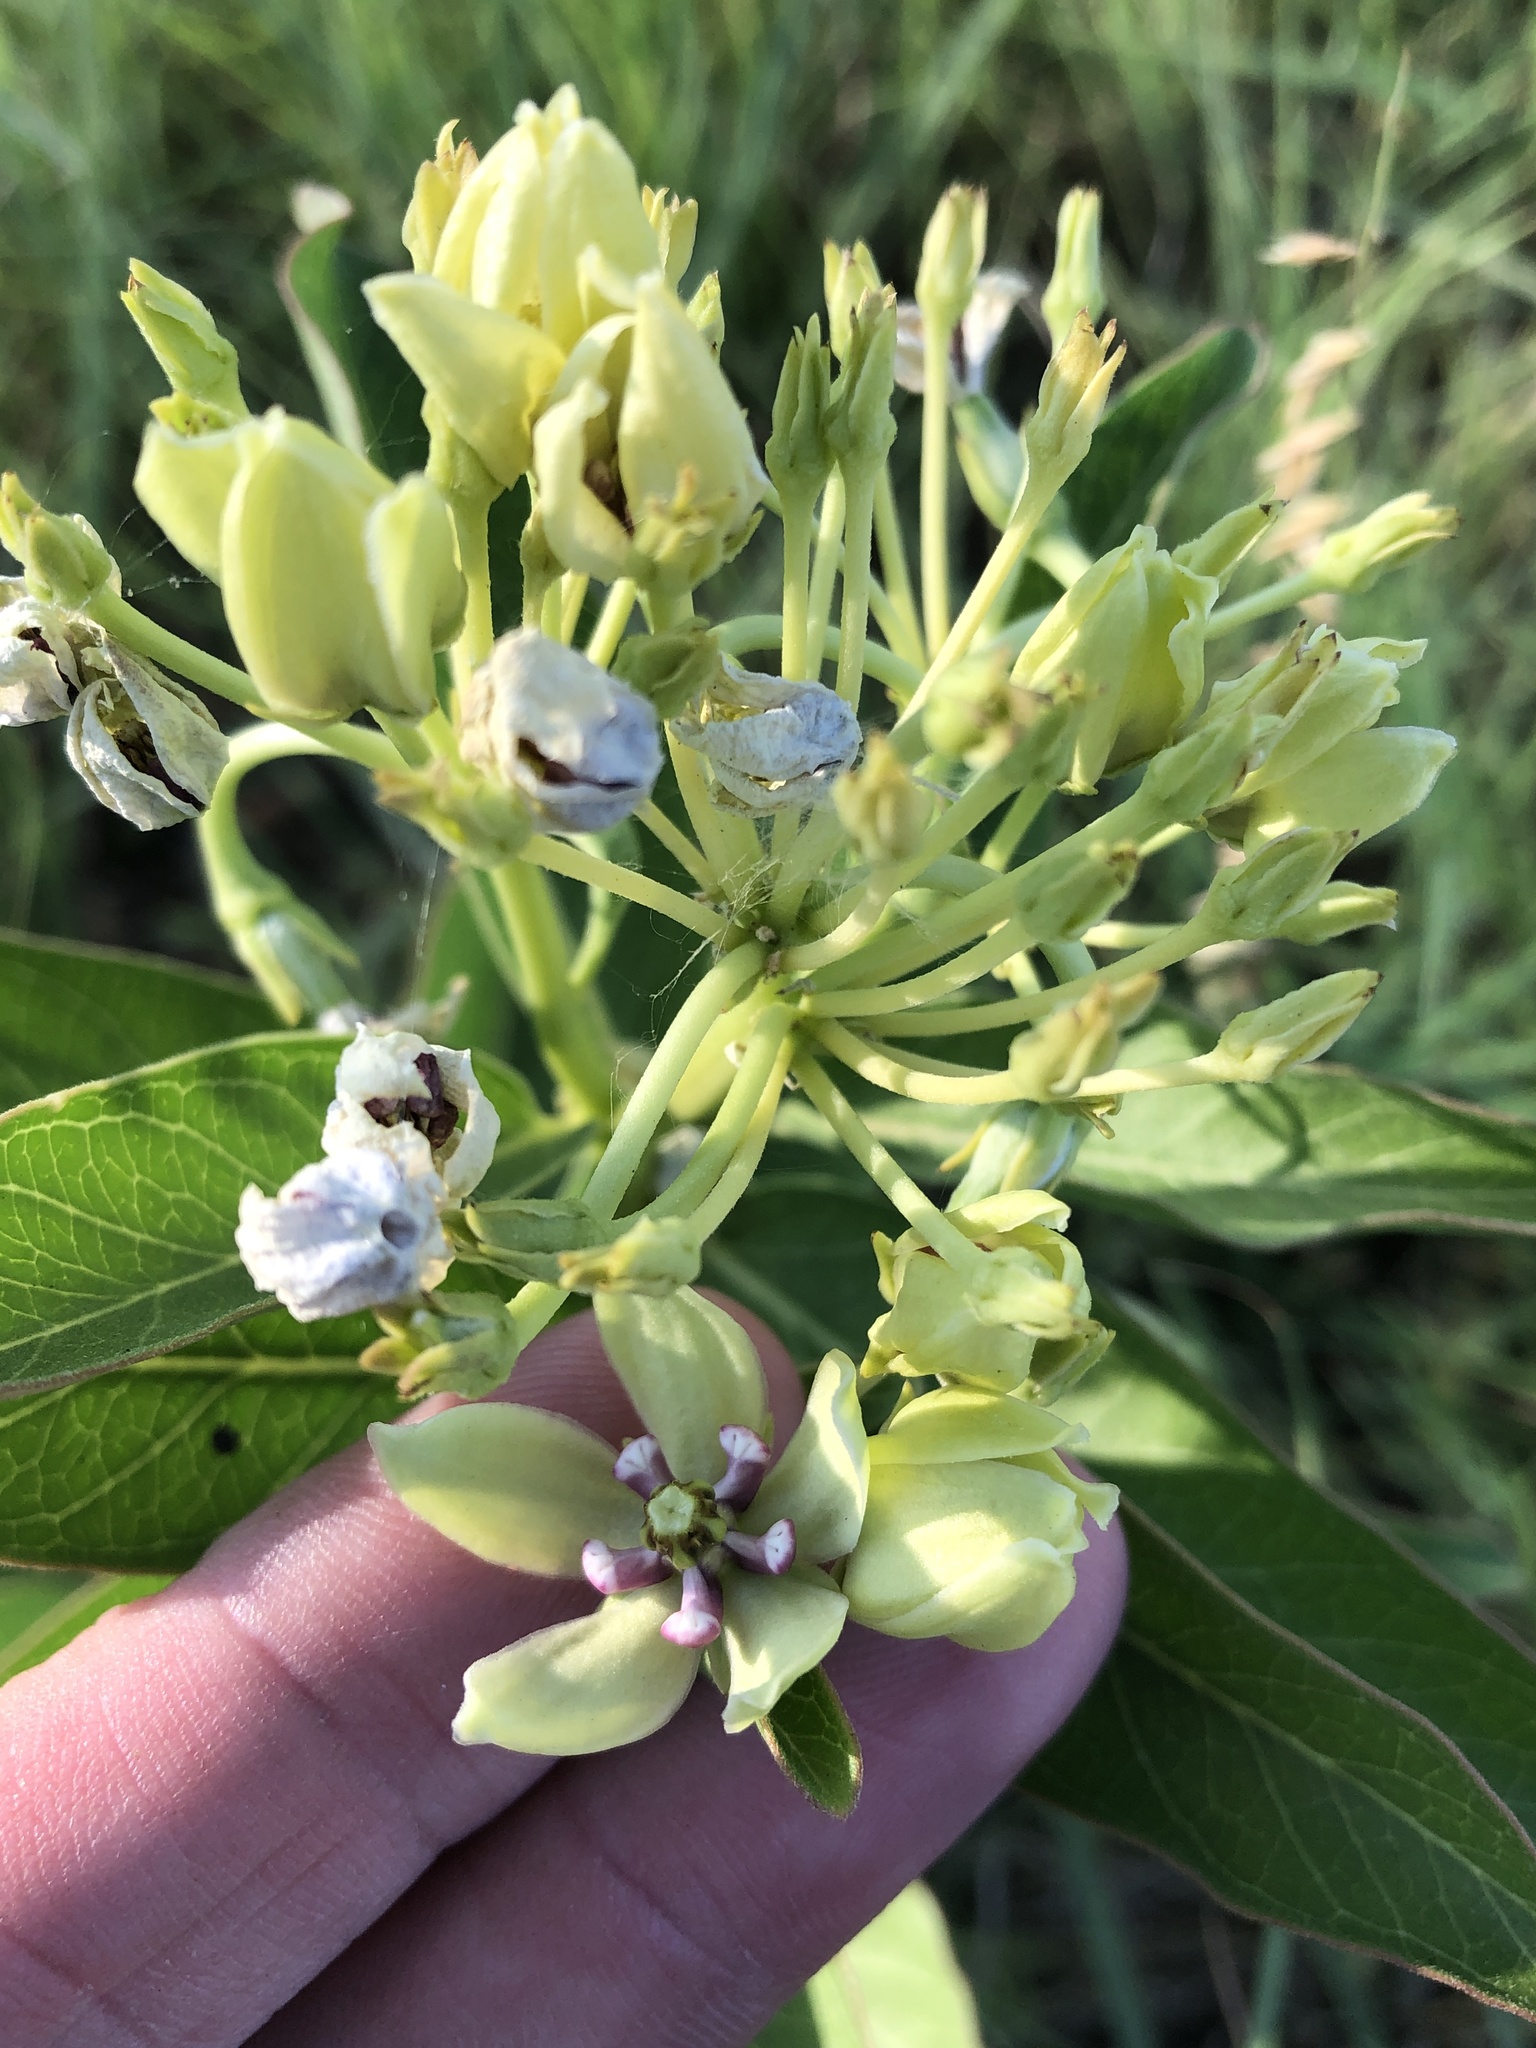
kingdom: Plantae
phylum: Tracheophyta
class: Magnoliopsida
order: Gentianales
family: Apocynaceae
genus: Asclepias
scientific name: Asclepias viridis
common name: Antelope-horns
